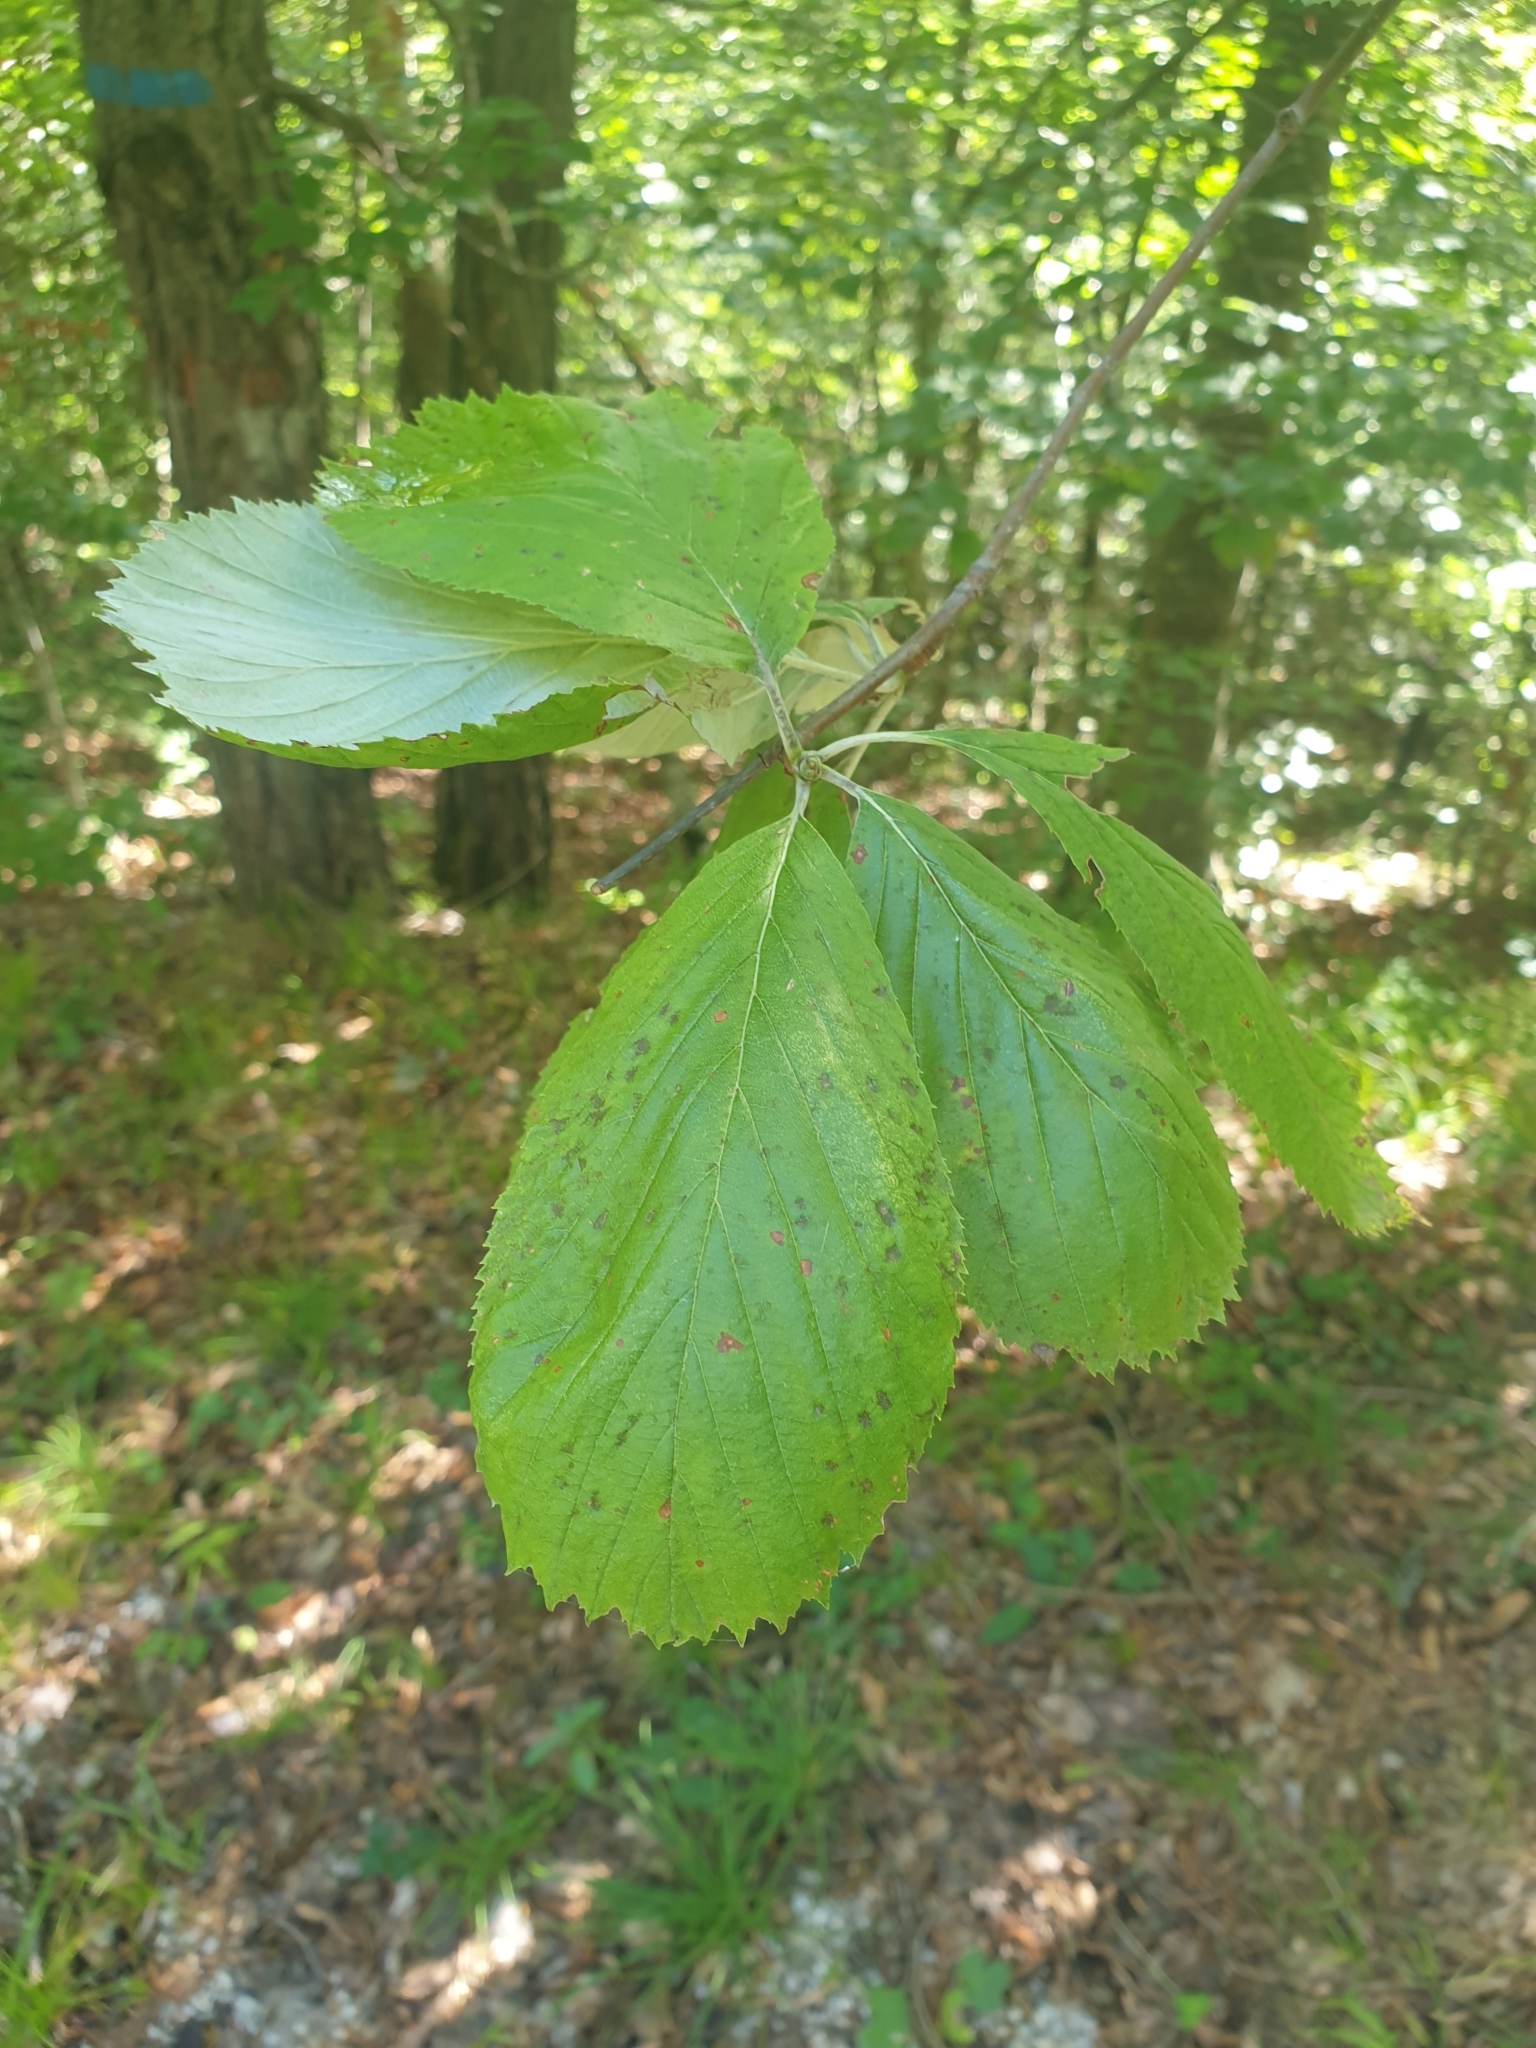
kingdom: Plantae
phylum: Tracheophyta
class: Magnoliopsida
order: Rosales
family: Rosaceae
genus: Aria
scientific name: Aria edulis
